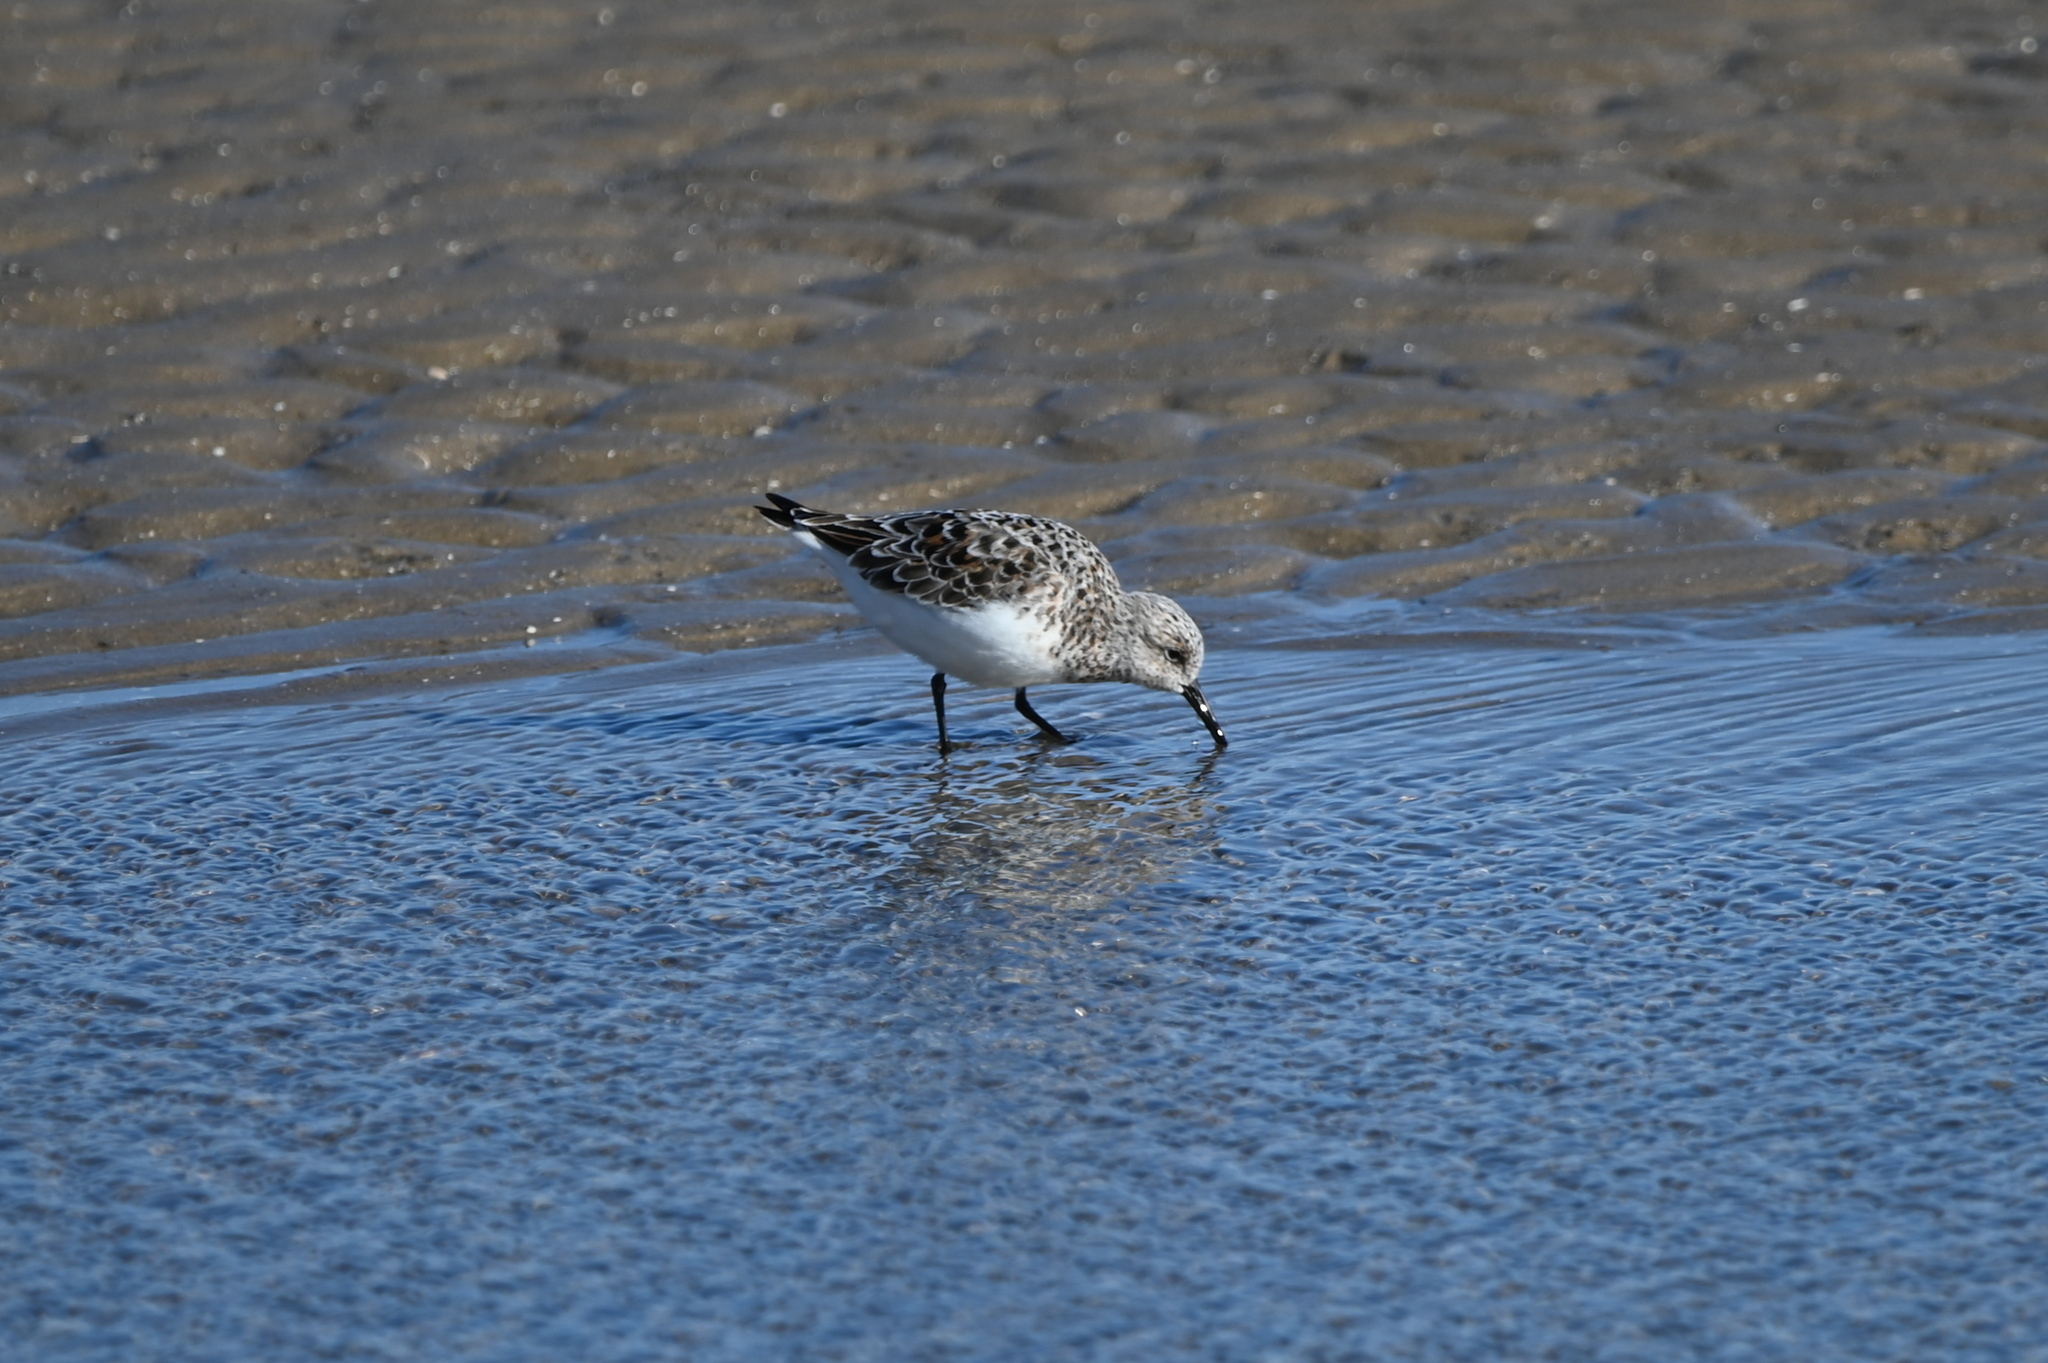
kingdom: Animalia
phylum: Chordata
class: Aves
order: Charadriiformes
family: Scolopacidae
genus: Calidris
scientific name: Calidris alba
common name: Sanderling
